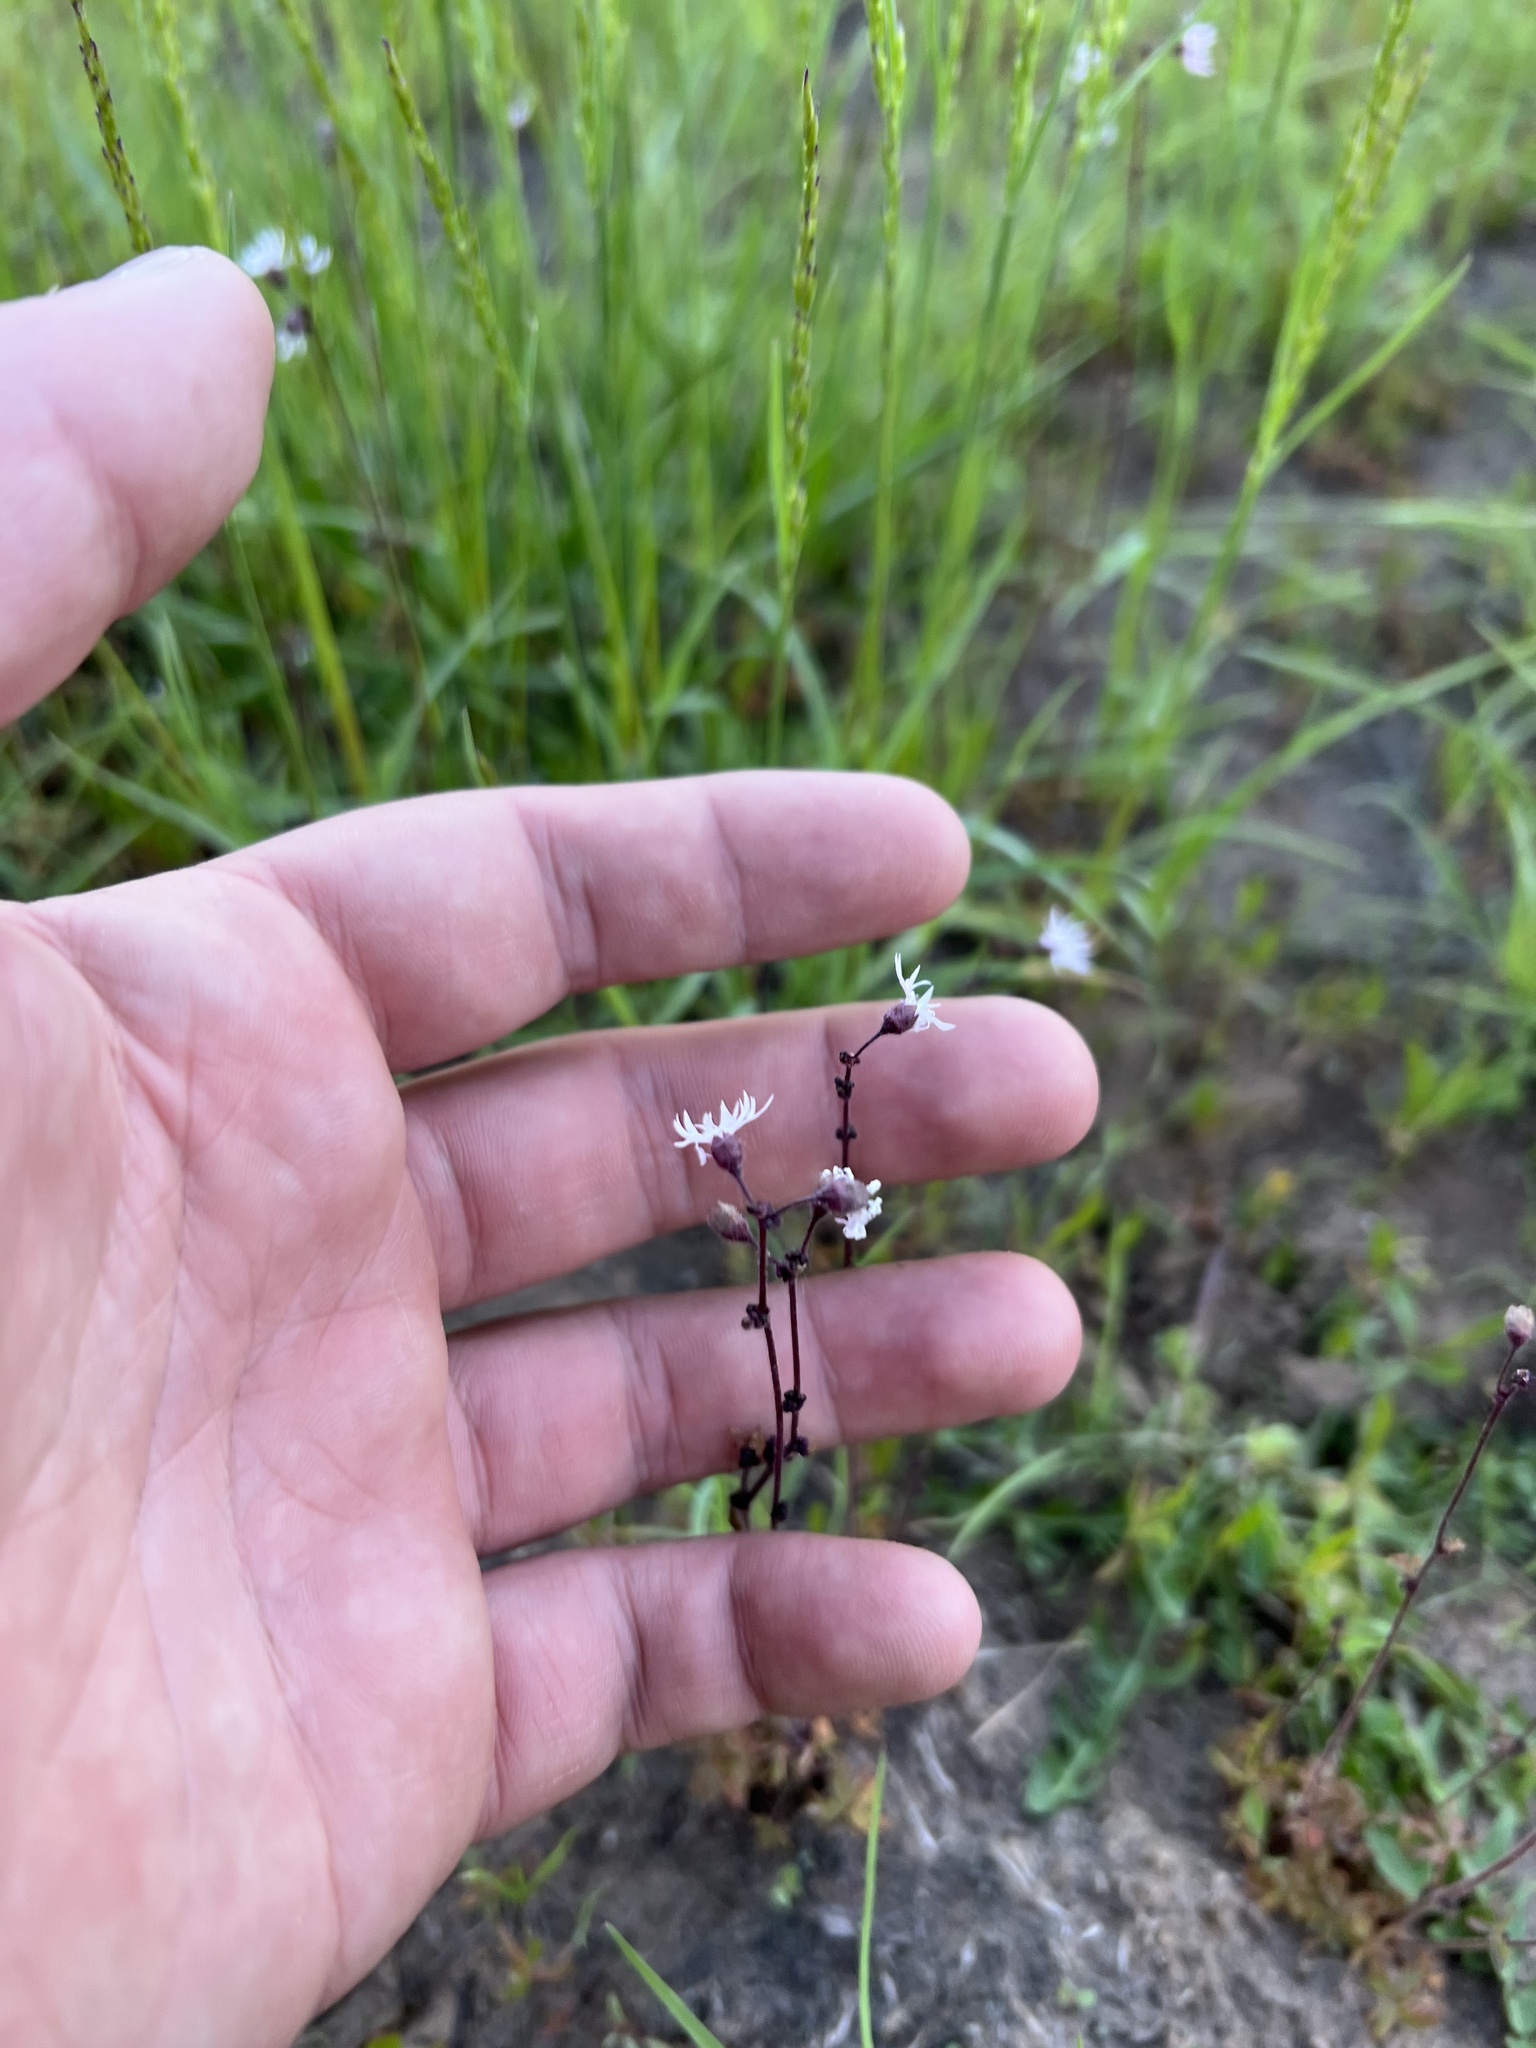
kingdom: Plantae
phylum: Tracheophyta
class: Magnoliopsida
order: Saxifragales
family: Saxifragaceae
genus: Lithophragma
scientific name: Lithophragma glabrum
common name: Bulbous prairie-star
